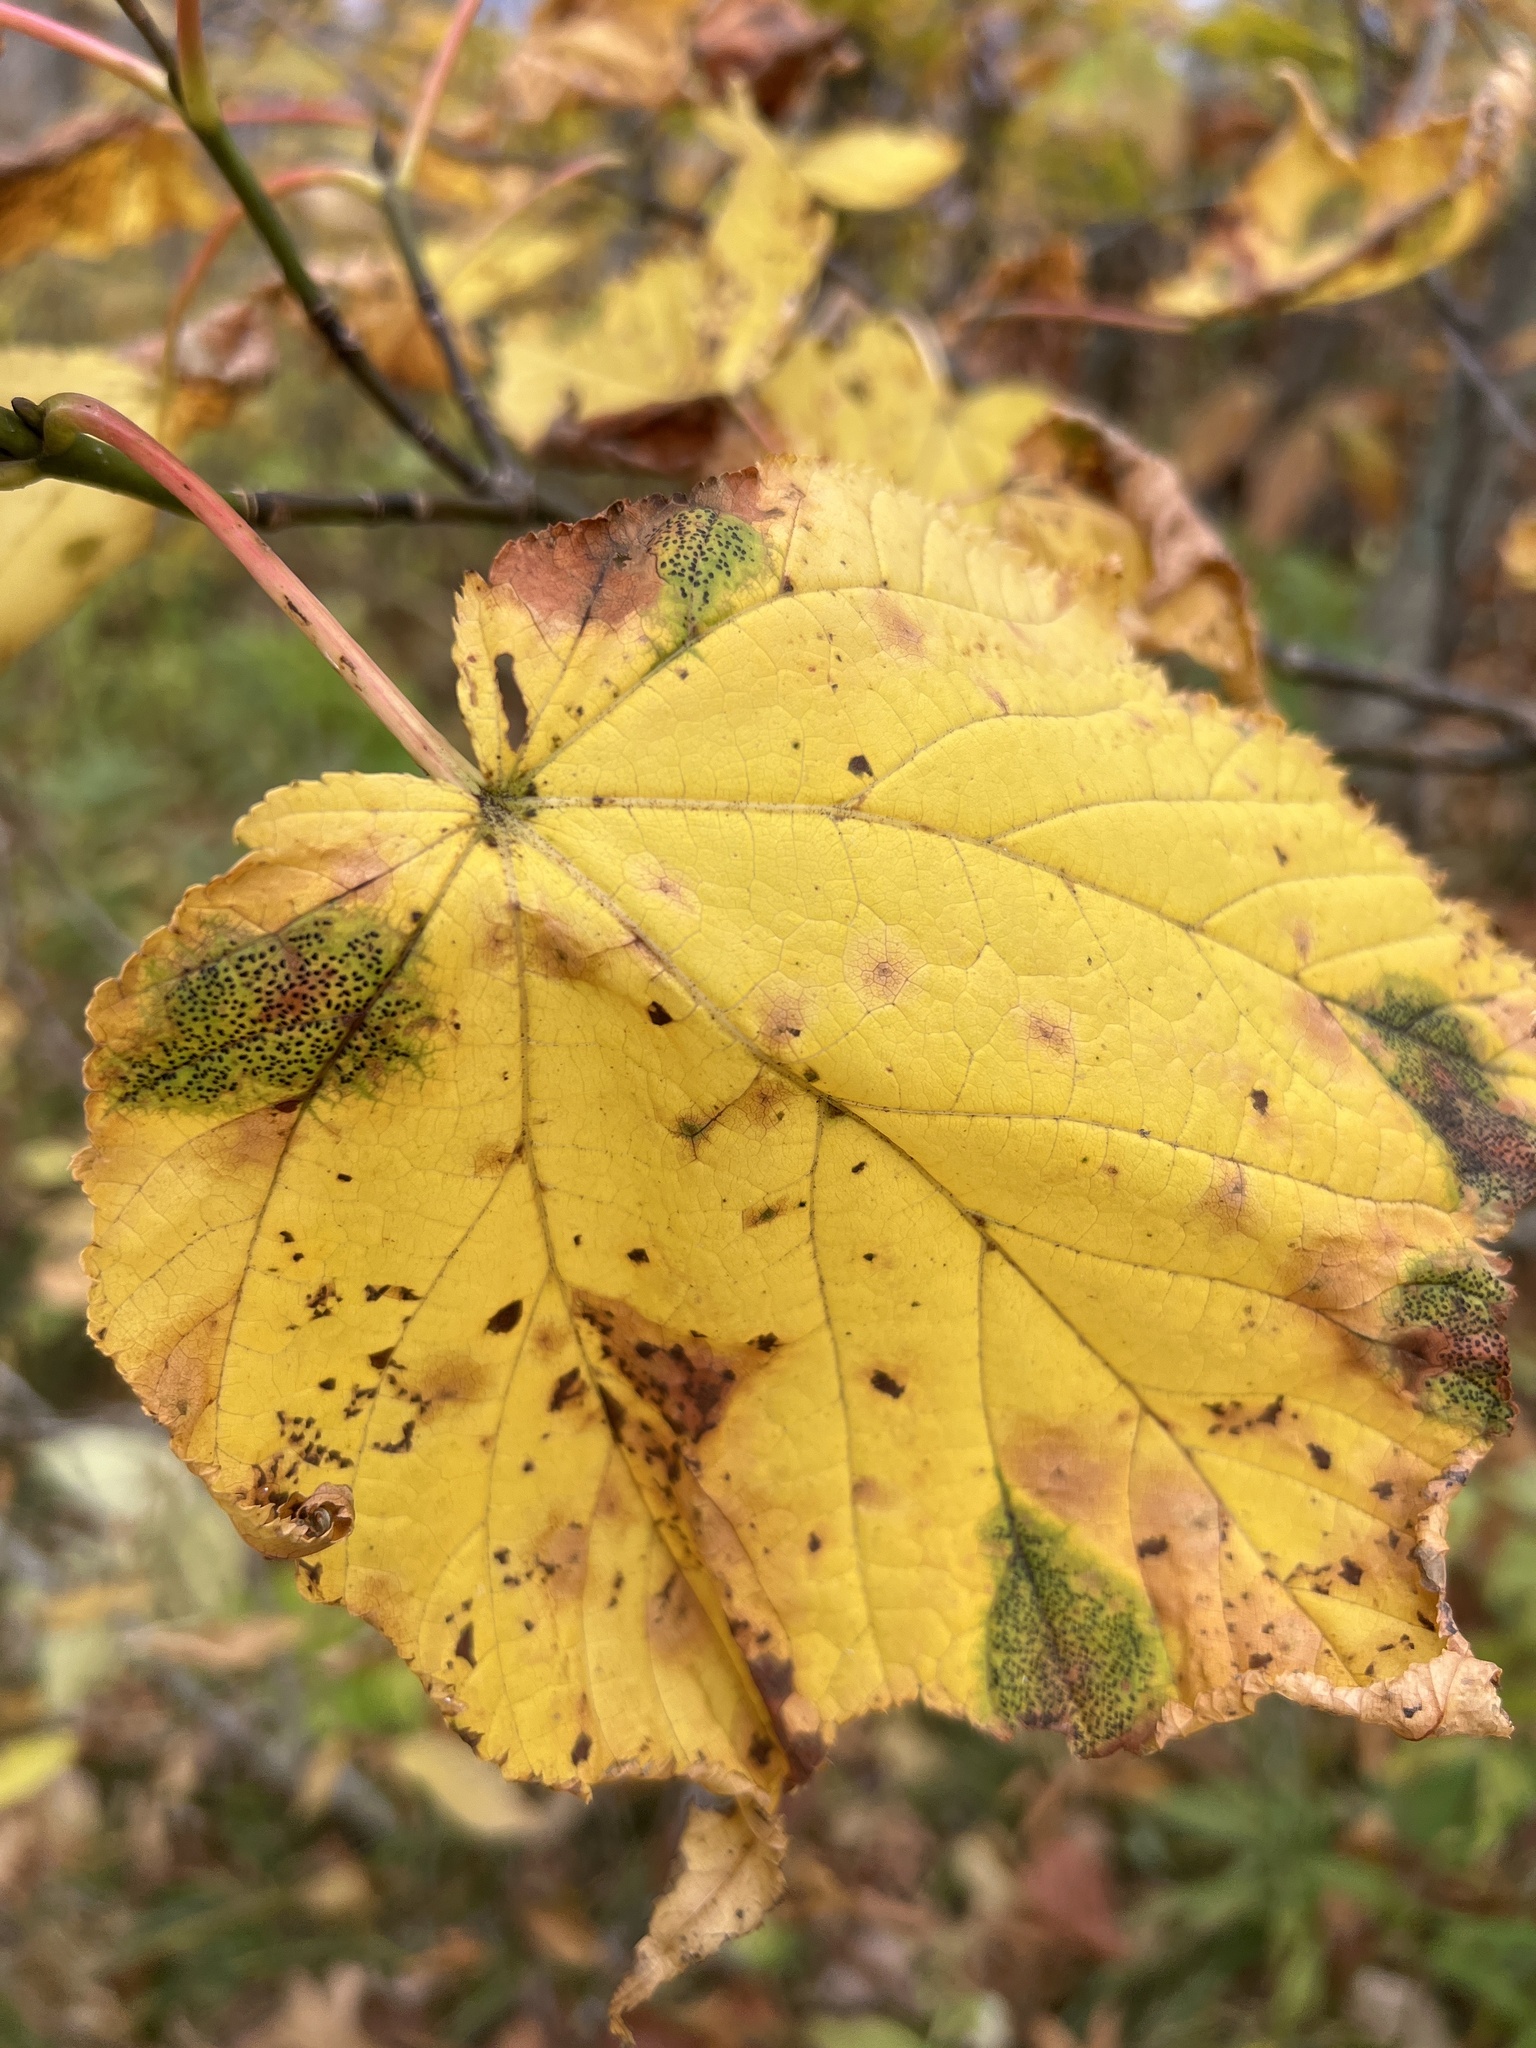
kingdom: Plantae
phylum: Tracheophyta
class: Magnoliopsida
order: Sapindales
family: Sapindaceae
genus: Acer
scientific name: Acer pensylvanicum
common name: Moosewood
